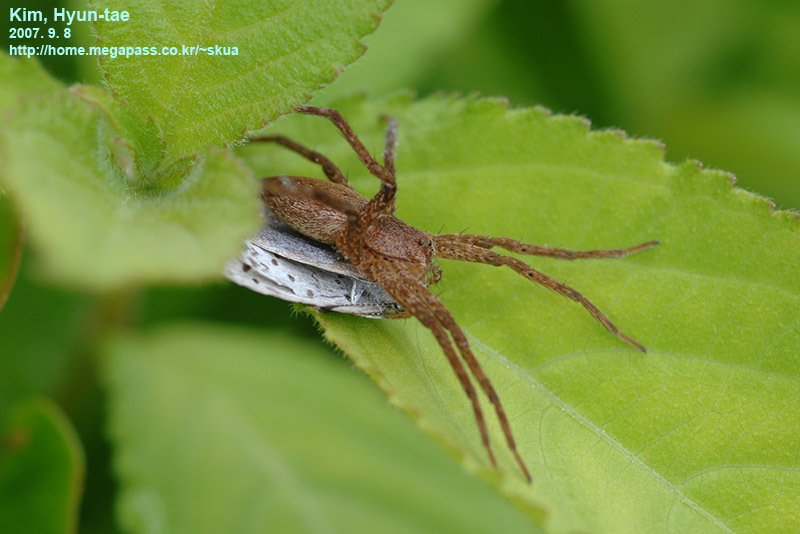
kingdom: Animalia
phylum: Arthropoda
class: Arachnida
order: Araneae
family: Pisauridae
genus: Dolomedes
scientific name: Dolomedes sulfureus
